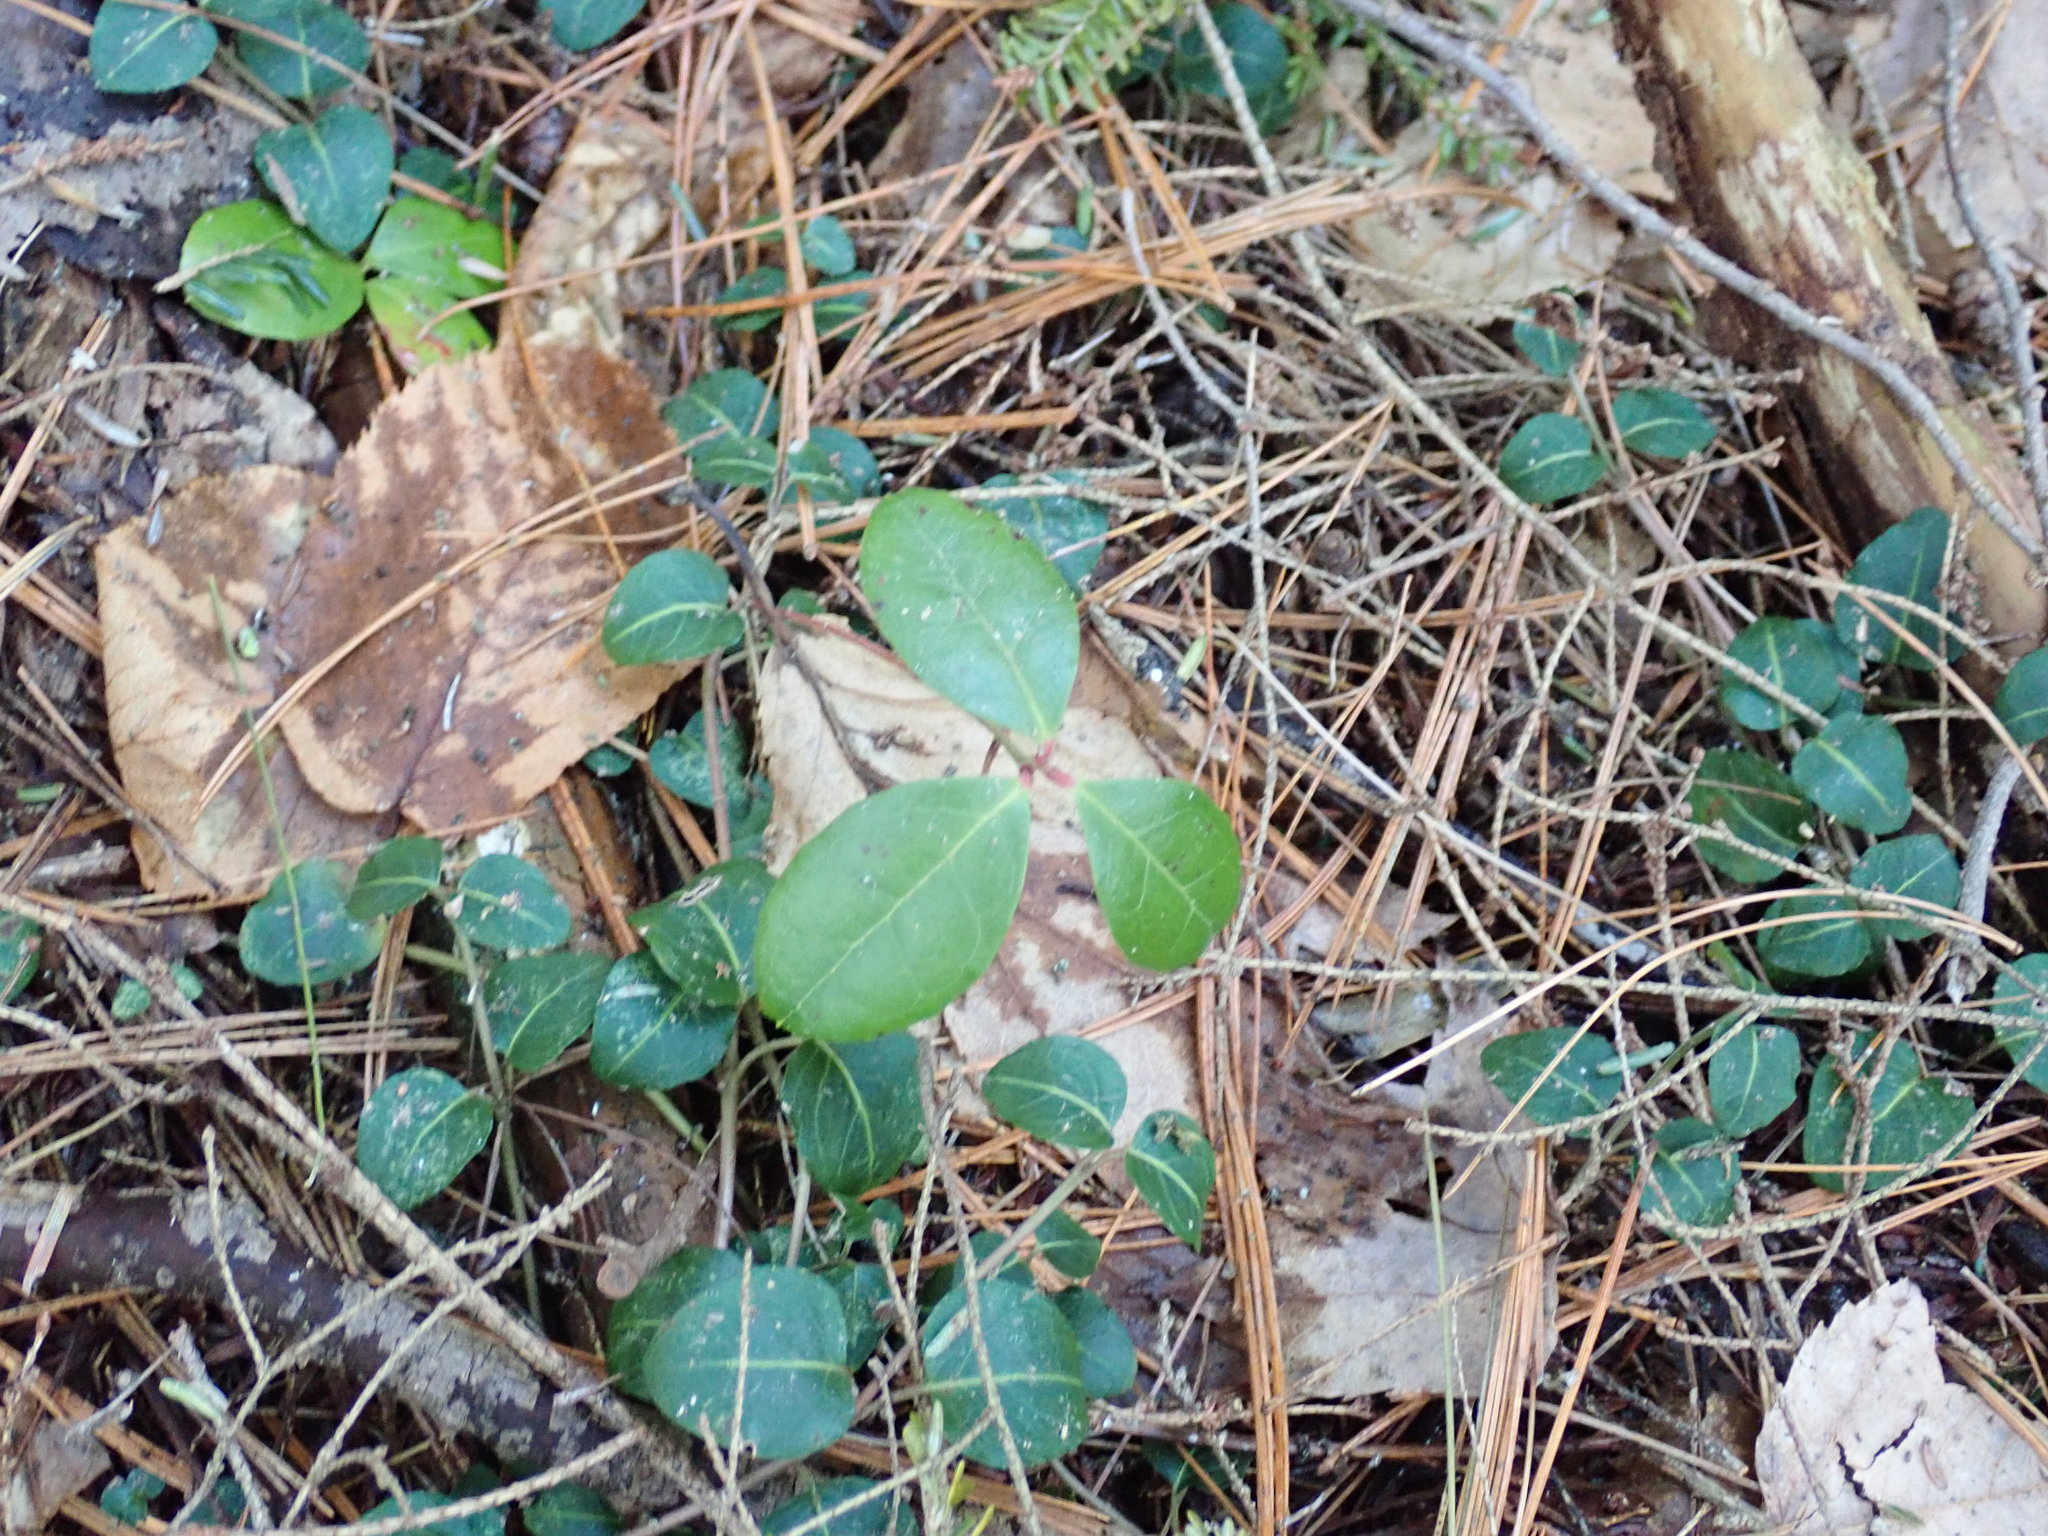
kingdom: Plantae
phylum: Tracheophyta
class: Magnoliopsida
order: Ericales
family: Ericaceae
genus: Gaultheria
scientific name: Gaultheria procumbens
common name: Checkerberry
